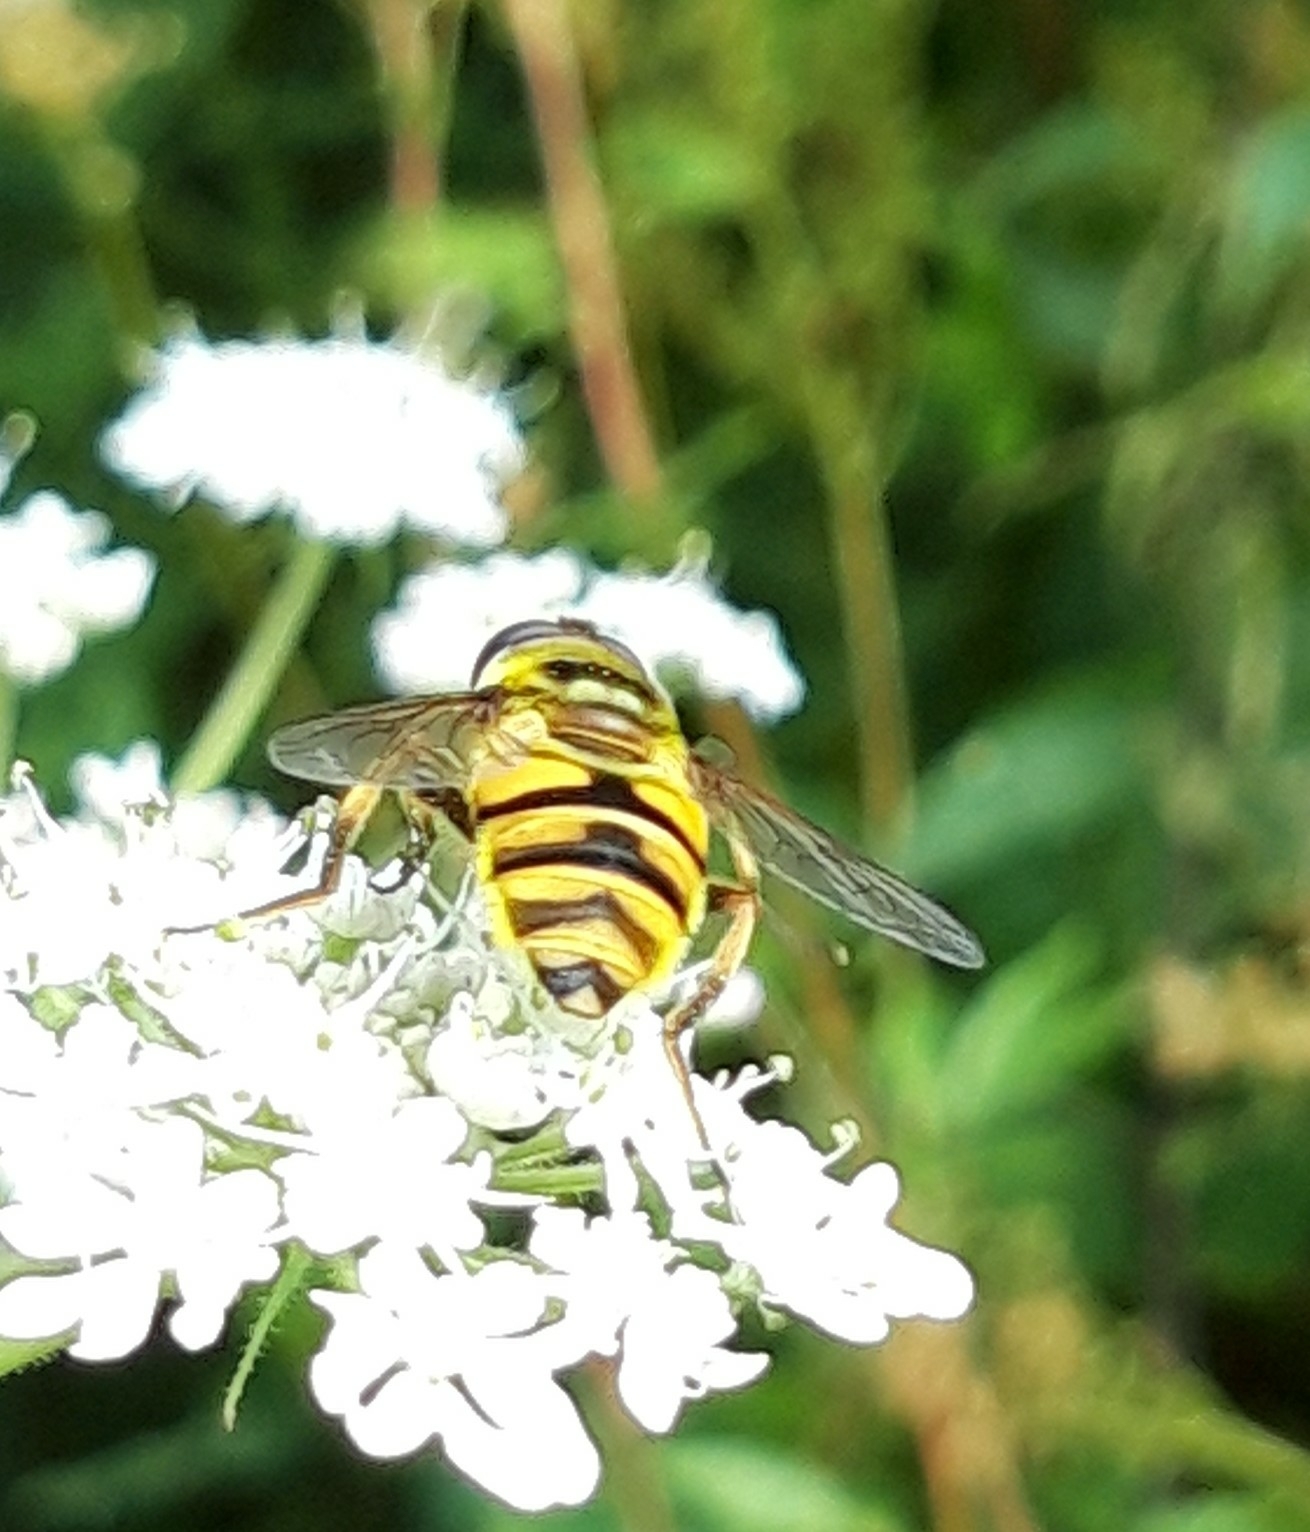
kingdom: Animalia
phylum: Arthropoda
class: Insecta
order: Diptera
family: Syrphidae
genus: Myathropa
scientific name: Myathropa florea
